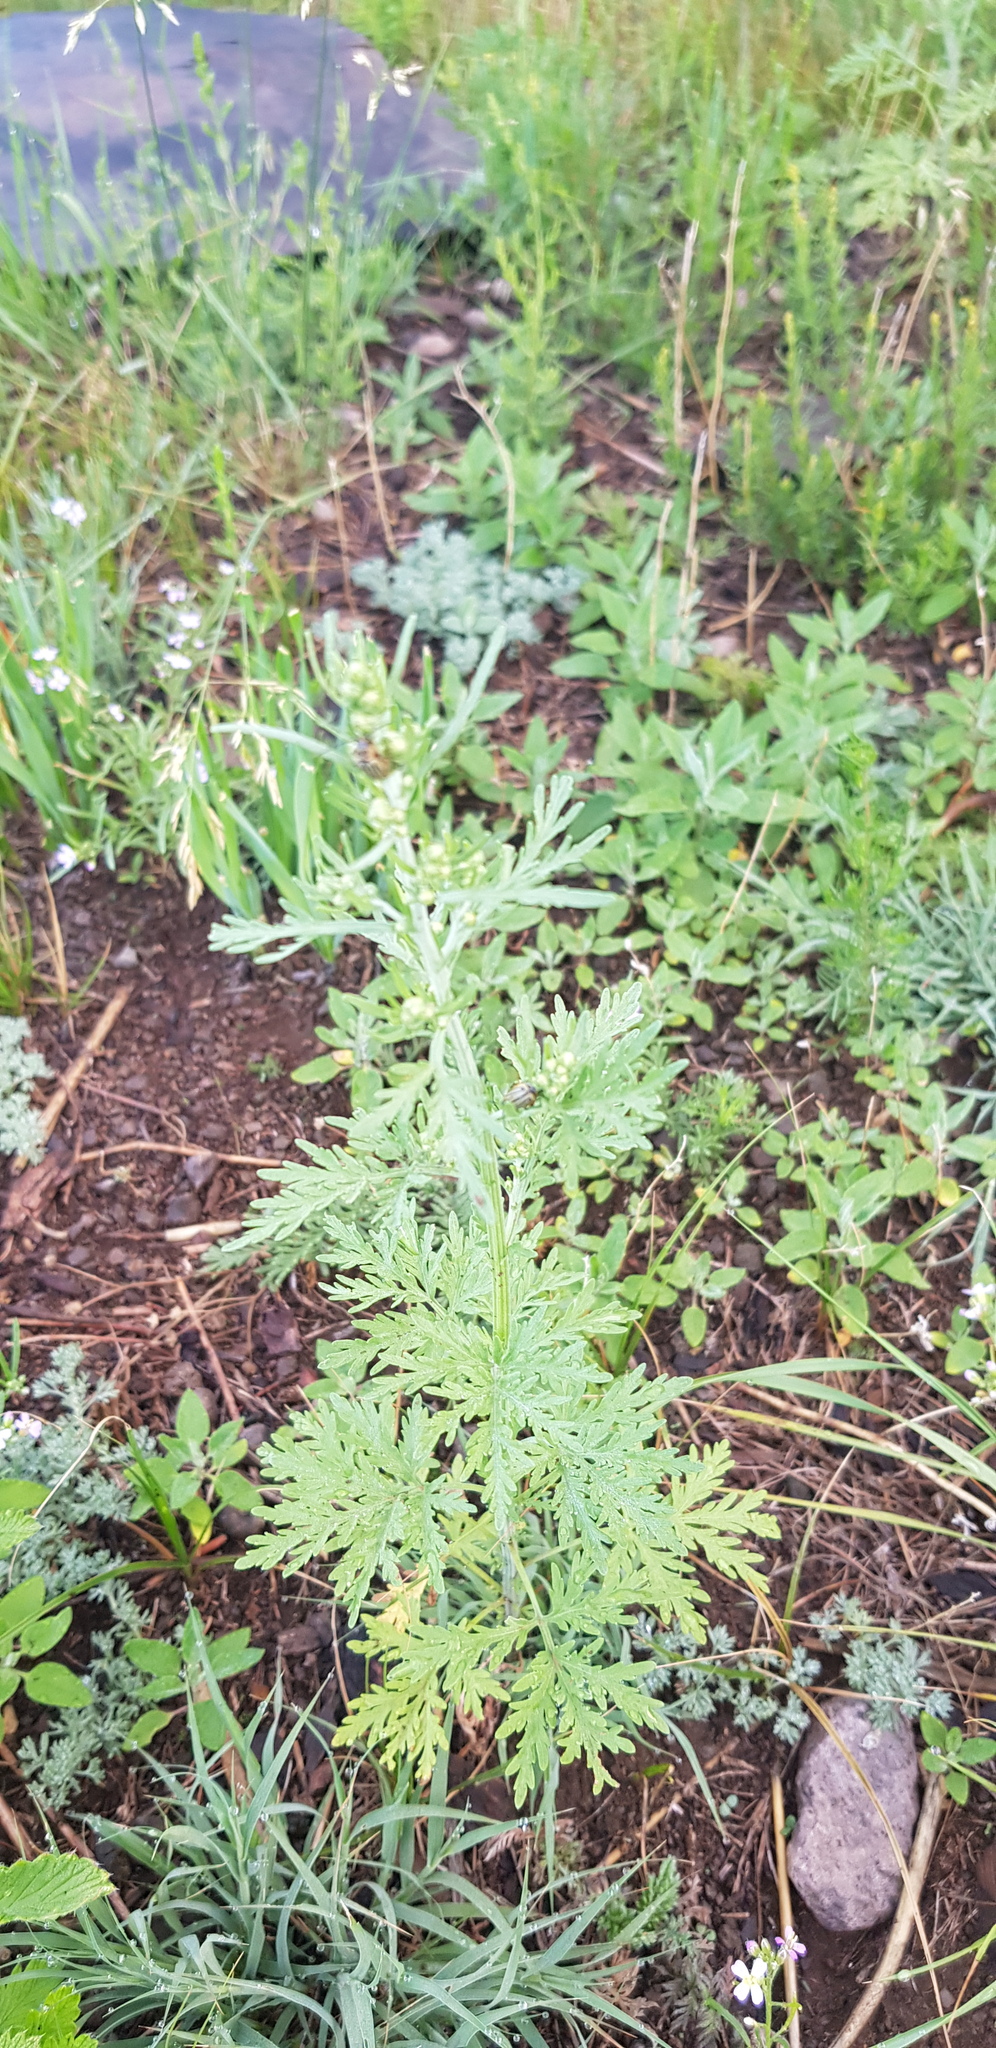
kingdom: Plantae
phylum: Tracheophyta
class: Magnoliopsida
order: Asterales
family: Asteraceae
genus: Artemisia
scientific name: Artemisia annua
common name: Sweet sagewort
